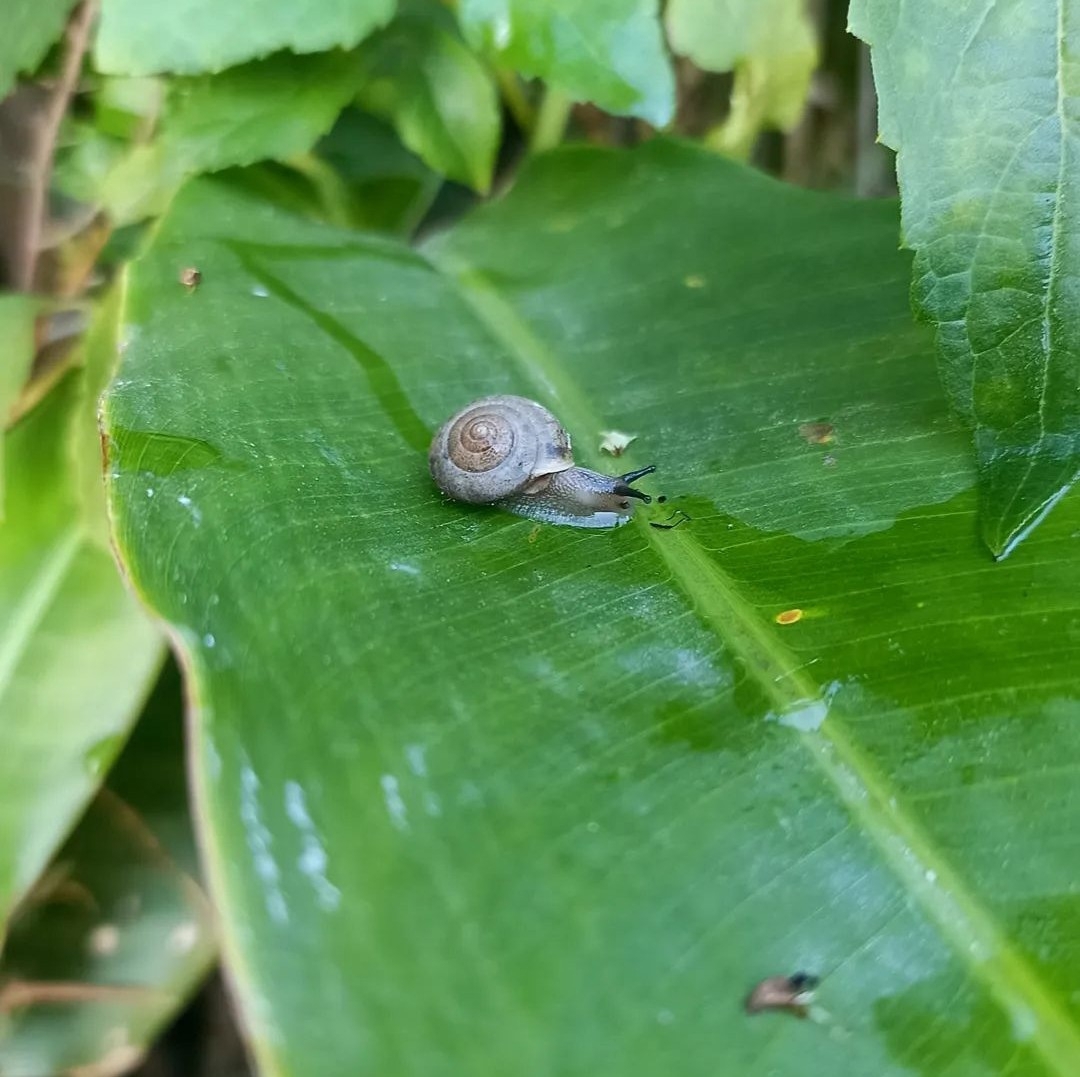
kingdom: Animalia
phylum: Mollusca
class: Gastropoda
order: Stylommatophora
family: Camaenidae
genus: Bradybaena
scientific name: Bradybaena similaris
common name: Asian trampsnail
